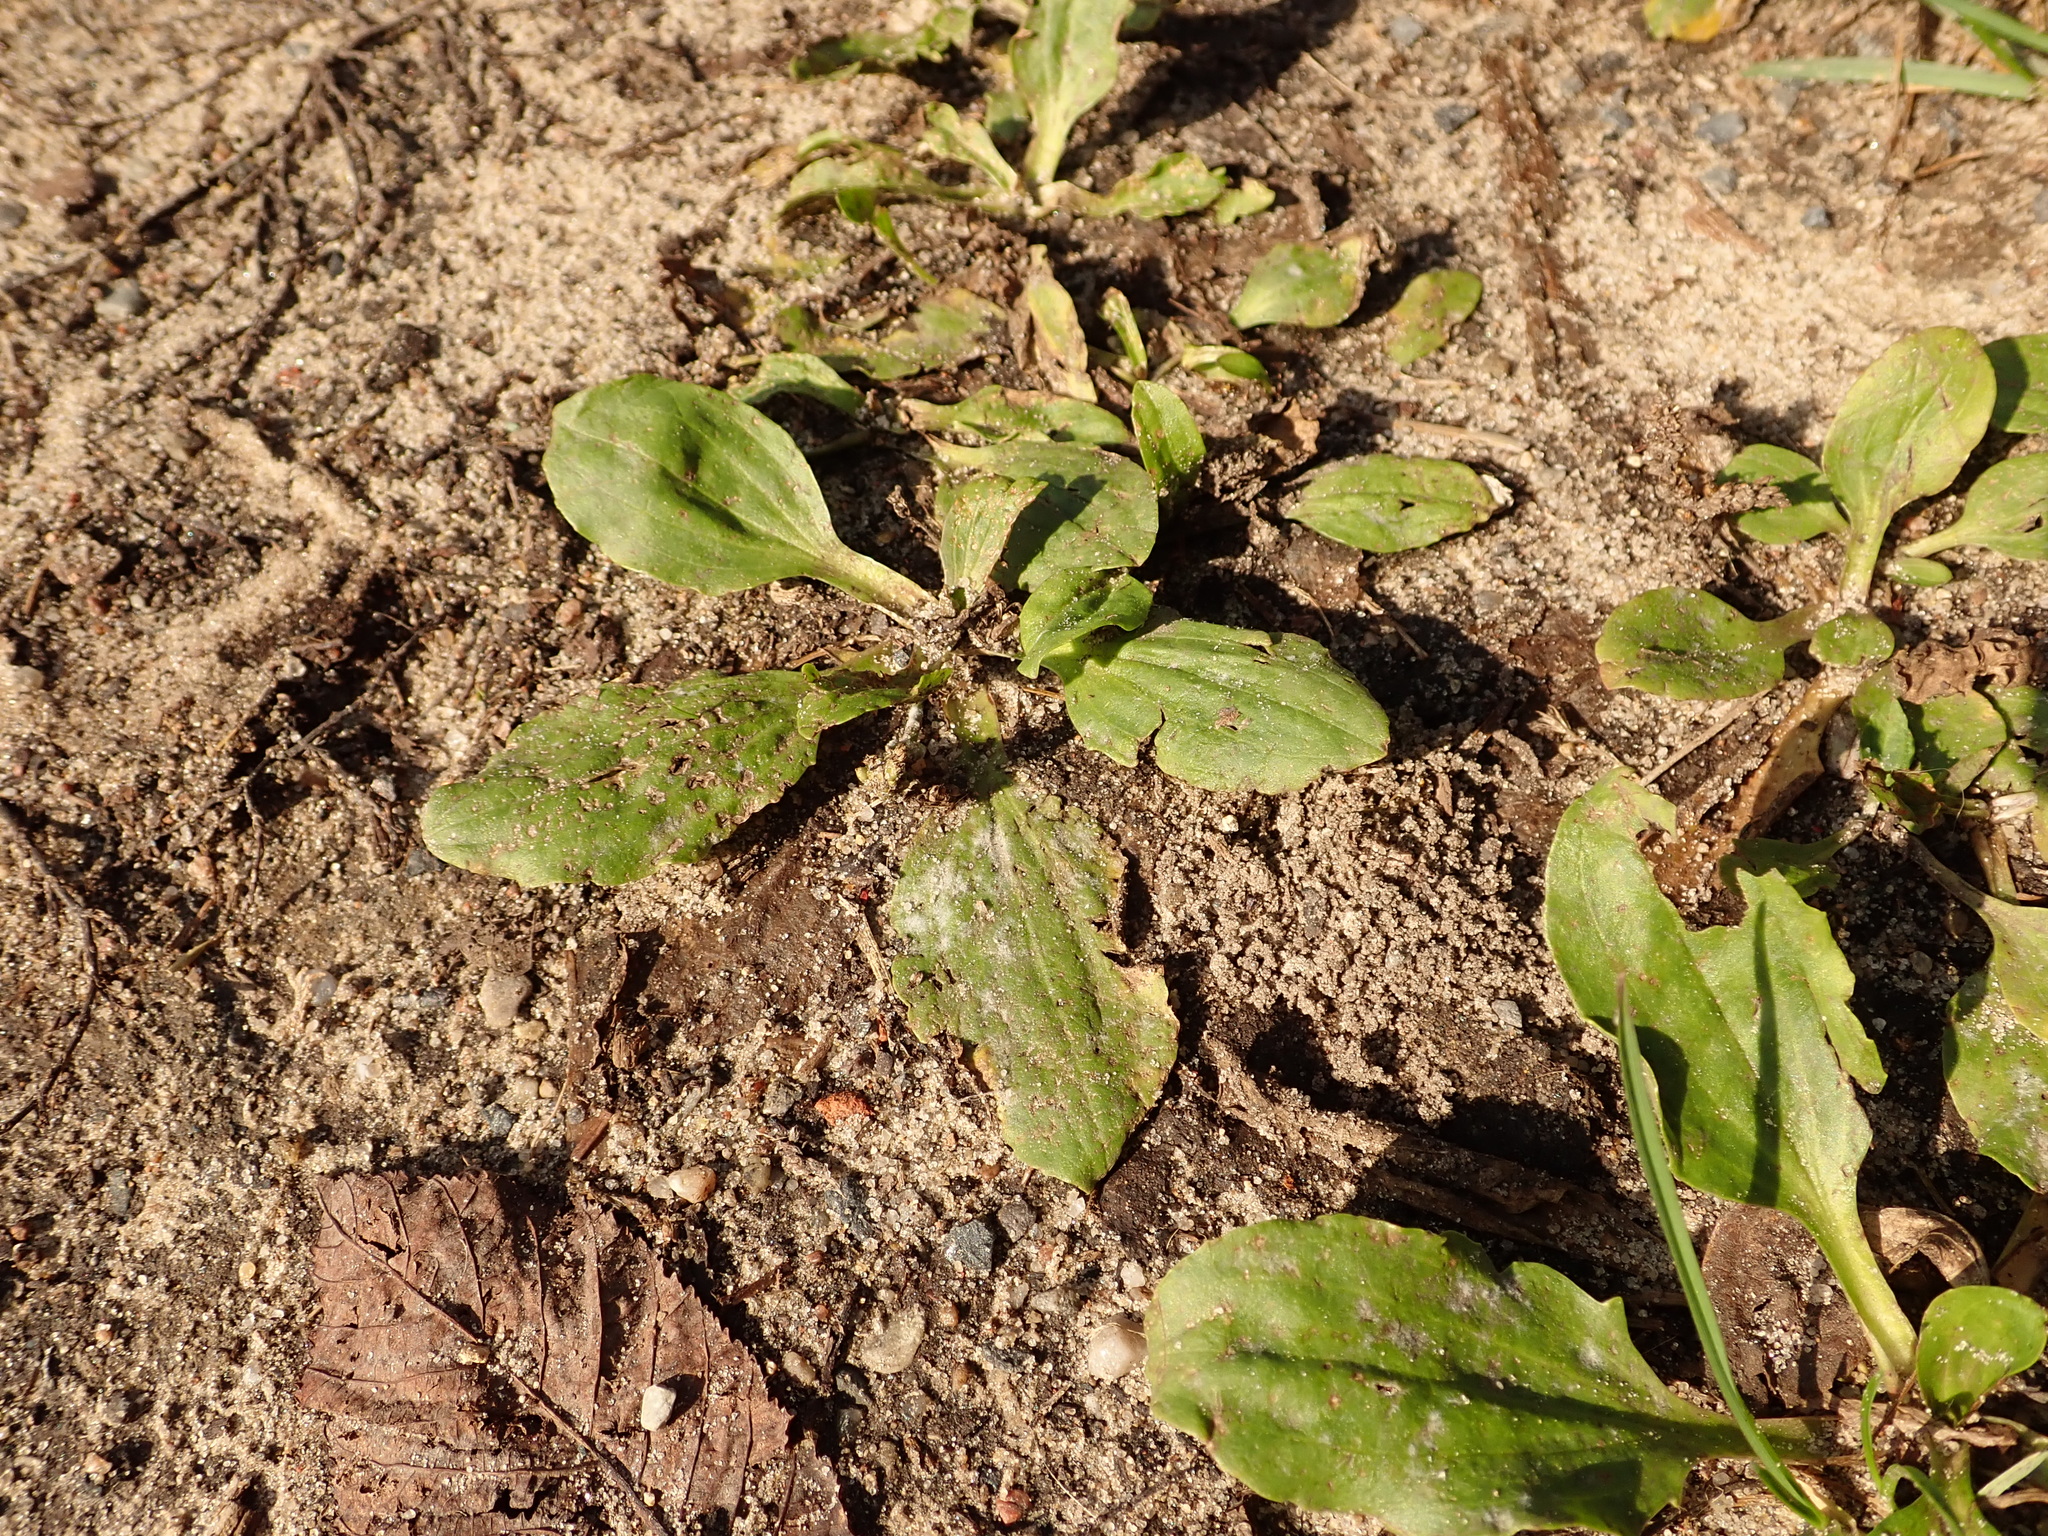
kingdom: Plantae
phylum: Tracheophyta
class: Magnoliopsida
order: Lamiales
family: Plantaginaceae
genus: Plantago
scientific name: Plantago major
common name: Common plantain
